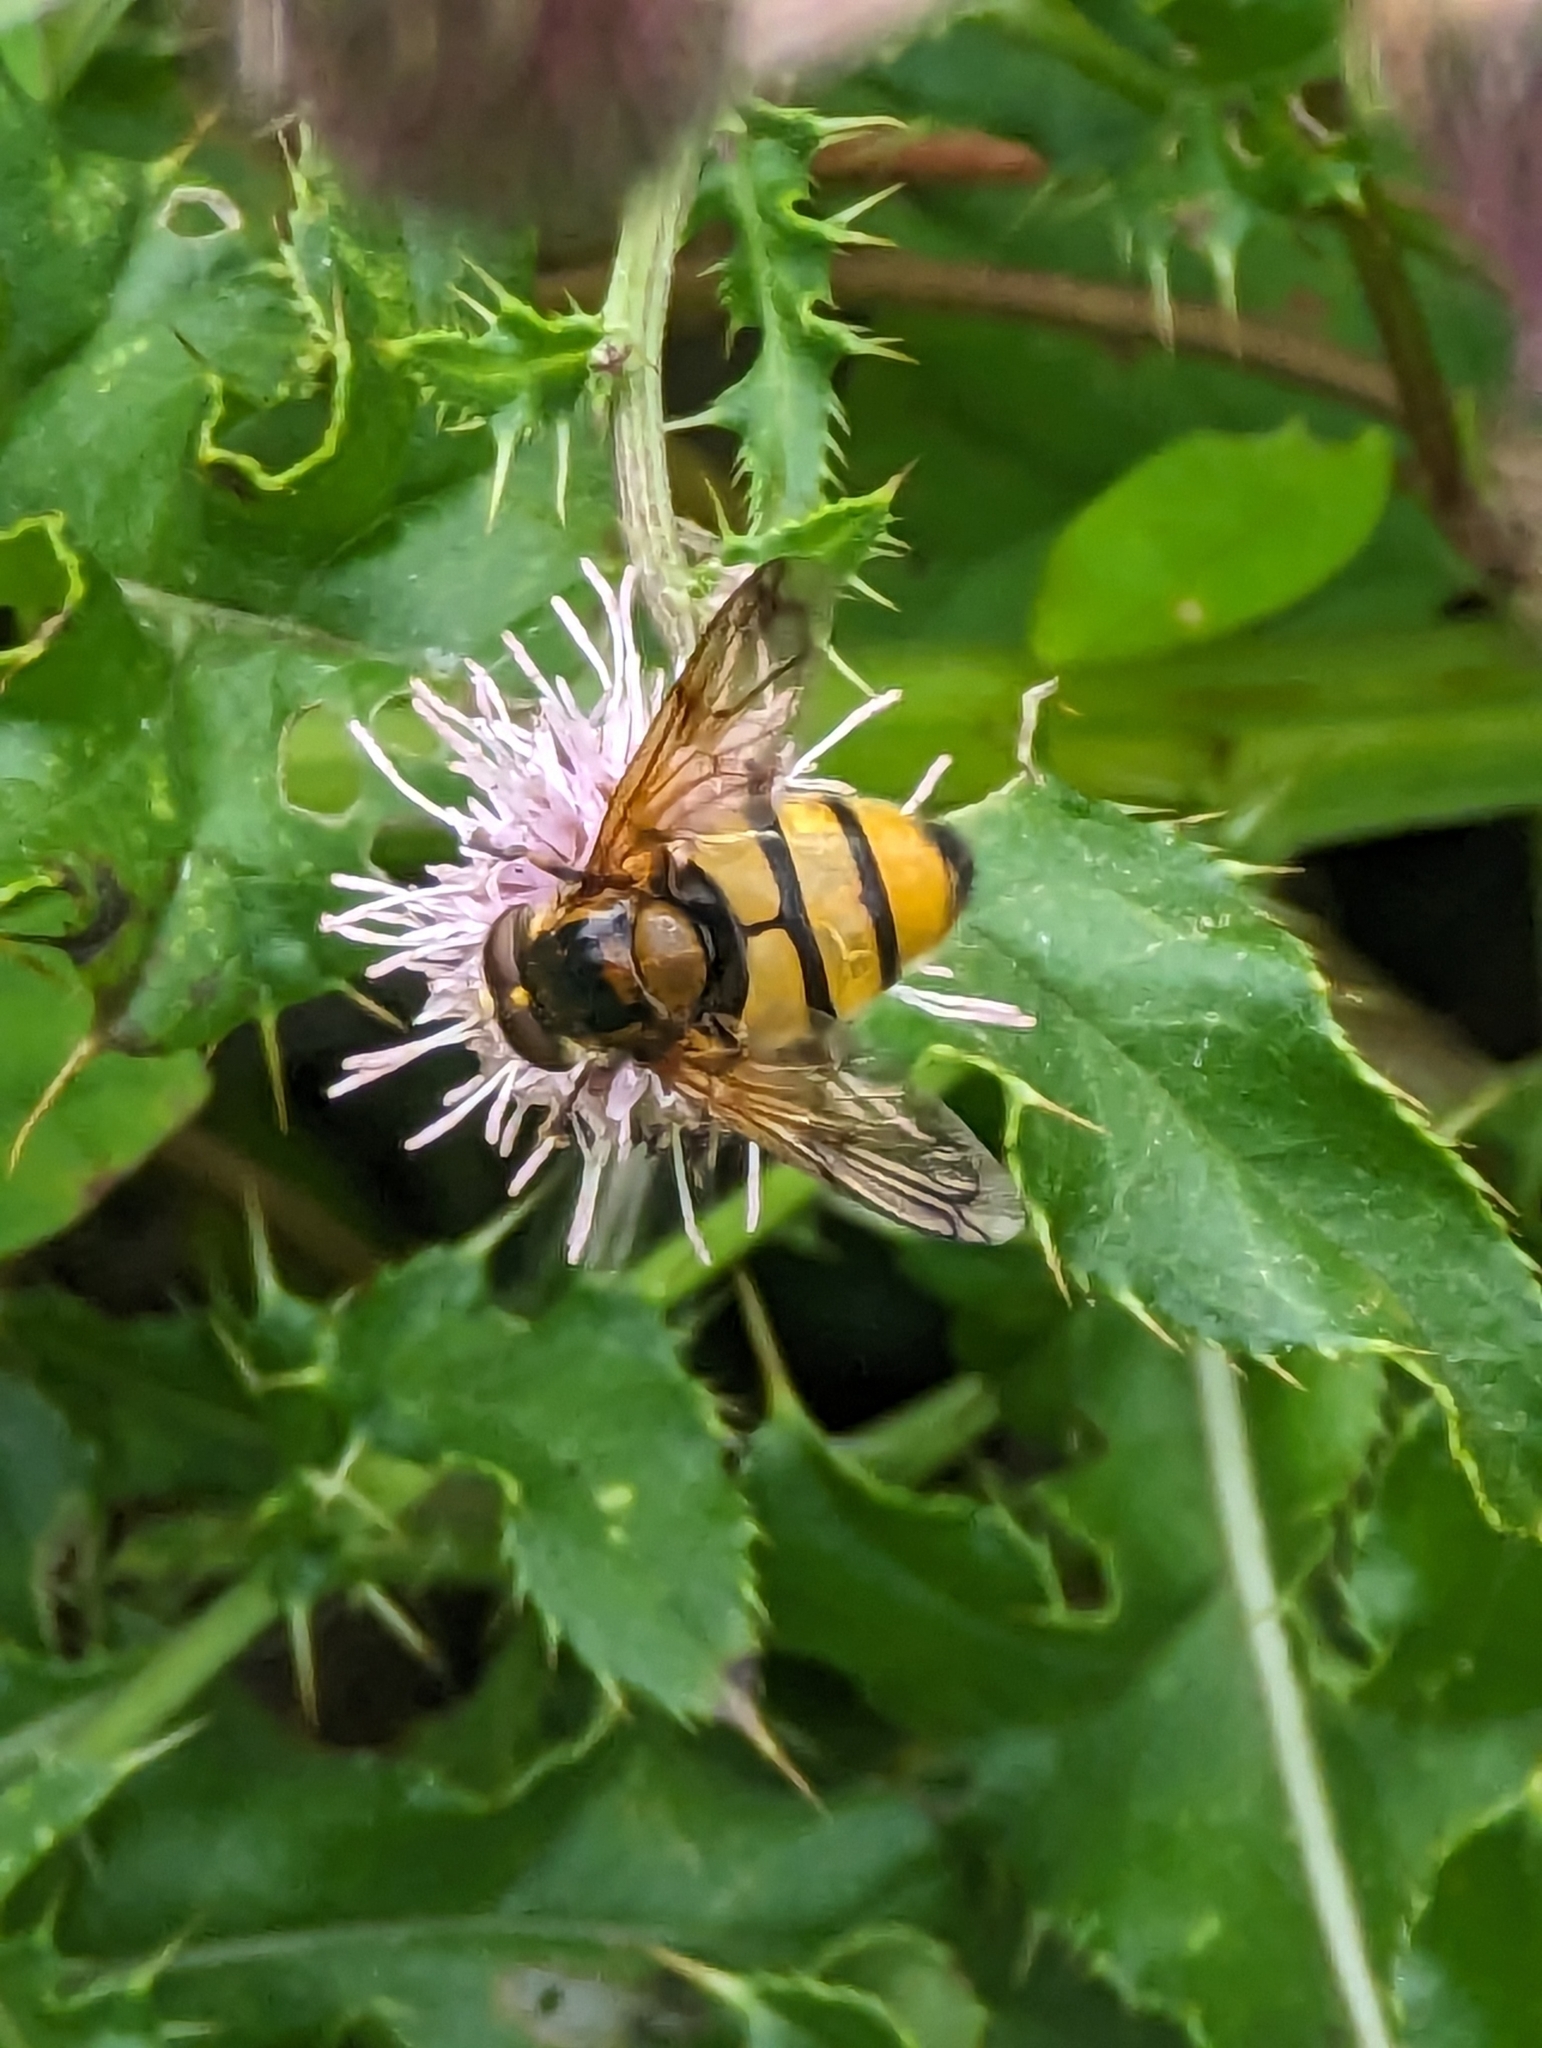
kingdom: Animalia
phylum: Arthropoda
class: Insecta
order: Diptera
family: Syrphidae
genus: Volucella
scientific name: Volucella inanis
